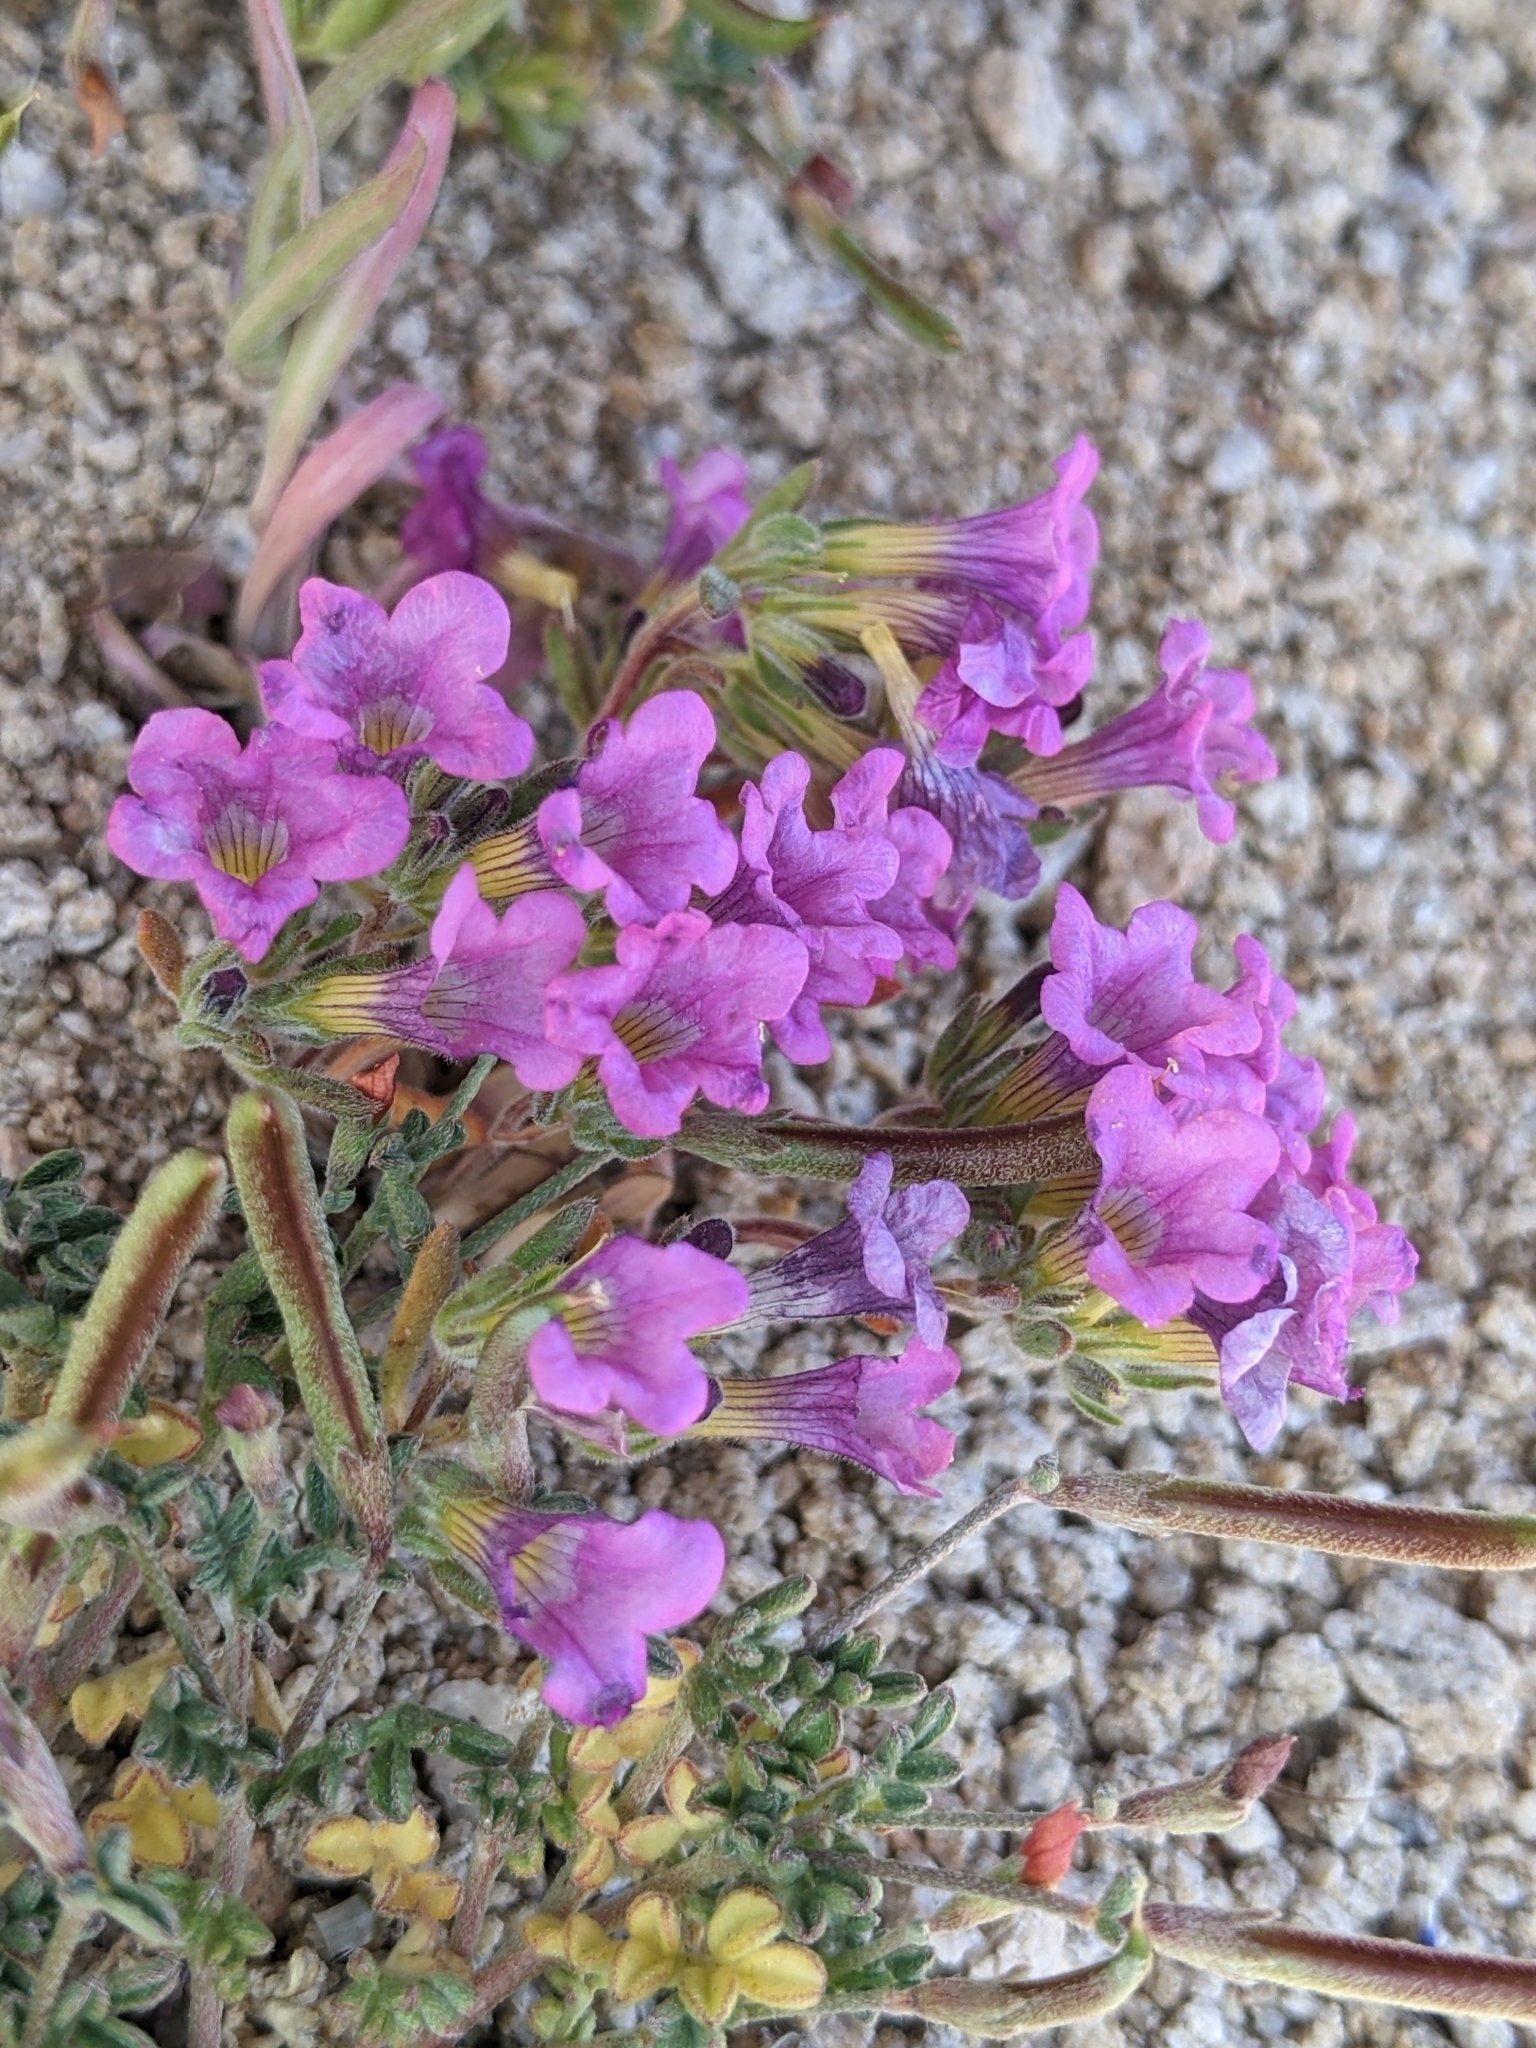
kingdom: Plantae
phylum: Tracheophyta
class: Magnoliopsida
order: Boraginales
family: Namaceae
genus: Nama
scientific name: Nama demissa
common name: Leafy nama
